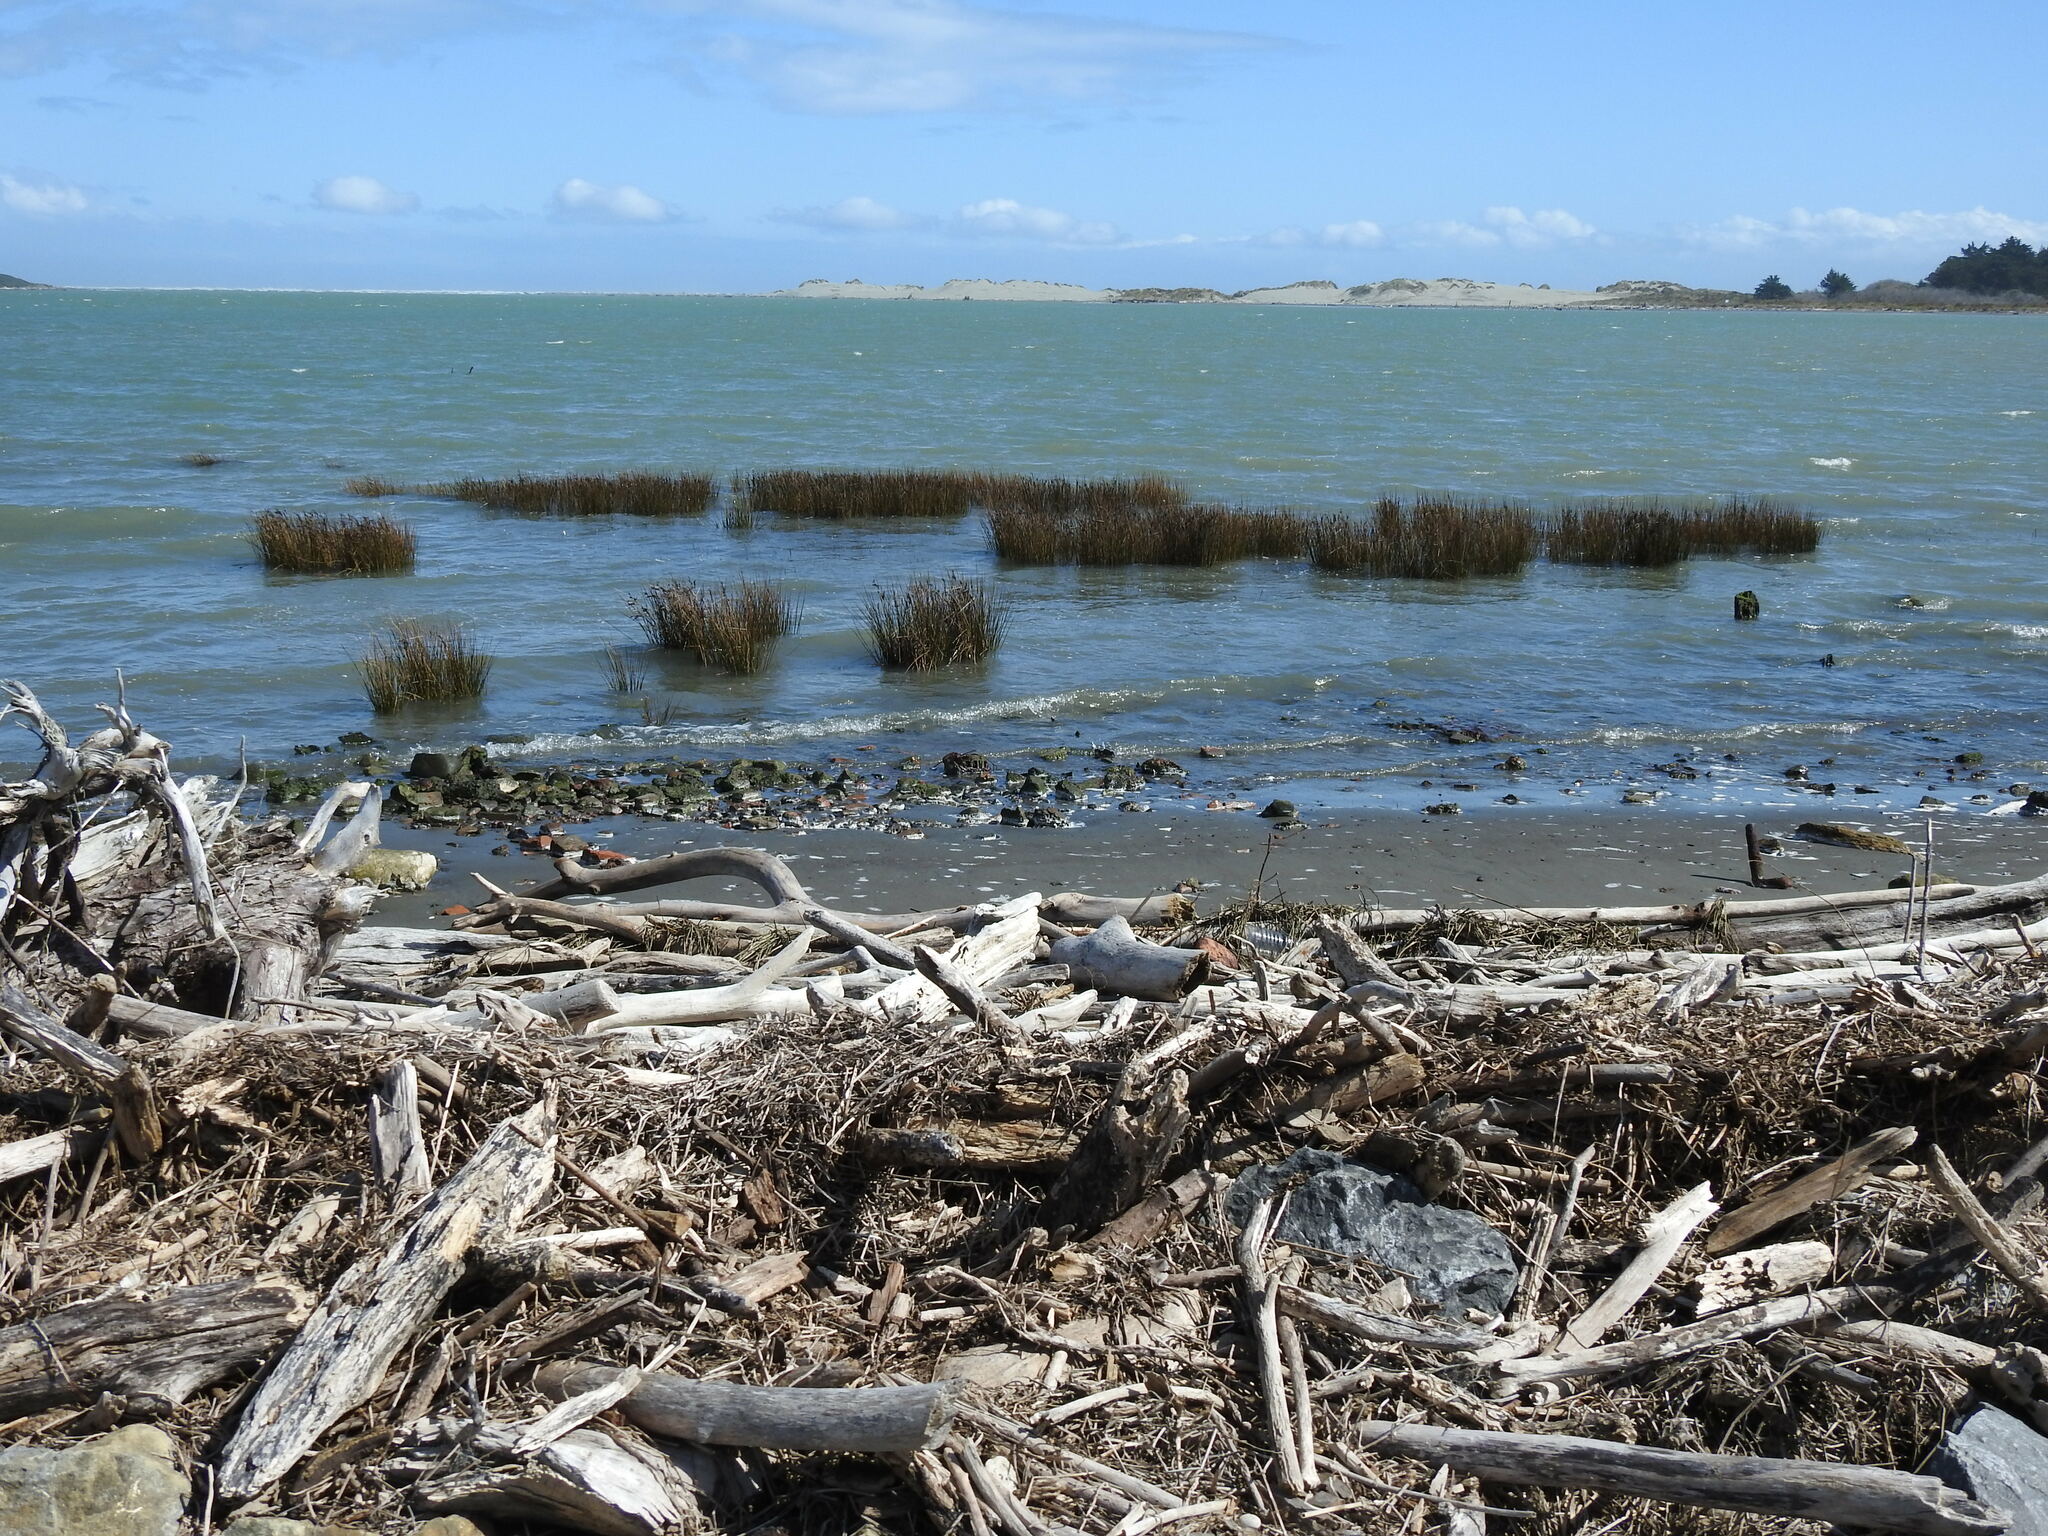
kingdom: Plantae
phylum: Tracheophyta
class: Liliopsida
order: Poales
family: Juncaceae
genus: Juncus
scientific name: Juncus kraussii
